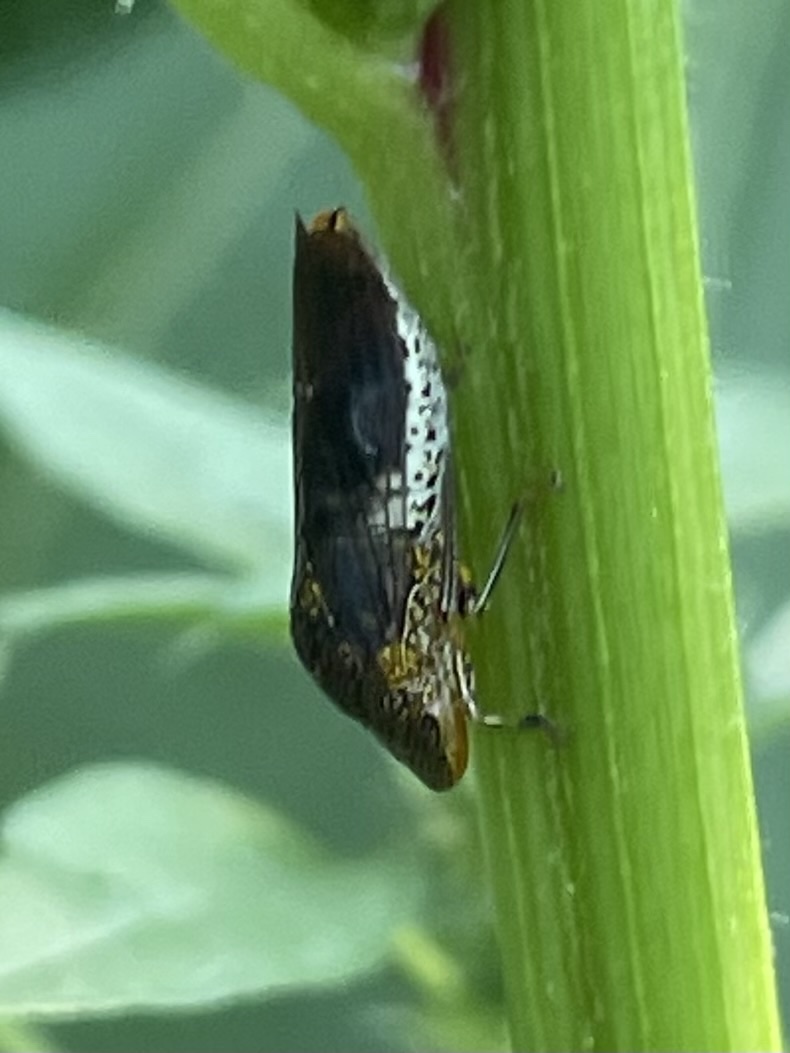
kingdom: Animalia
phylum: Arthropoda
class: Insecta
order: Hemiptera
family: Cicadellidae
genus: Homalodisca
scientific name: Homalodisca vitripennis
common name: Glassy-winged sharpshooter
